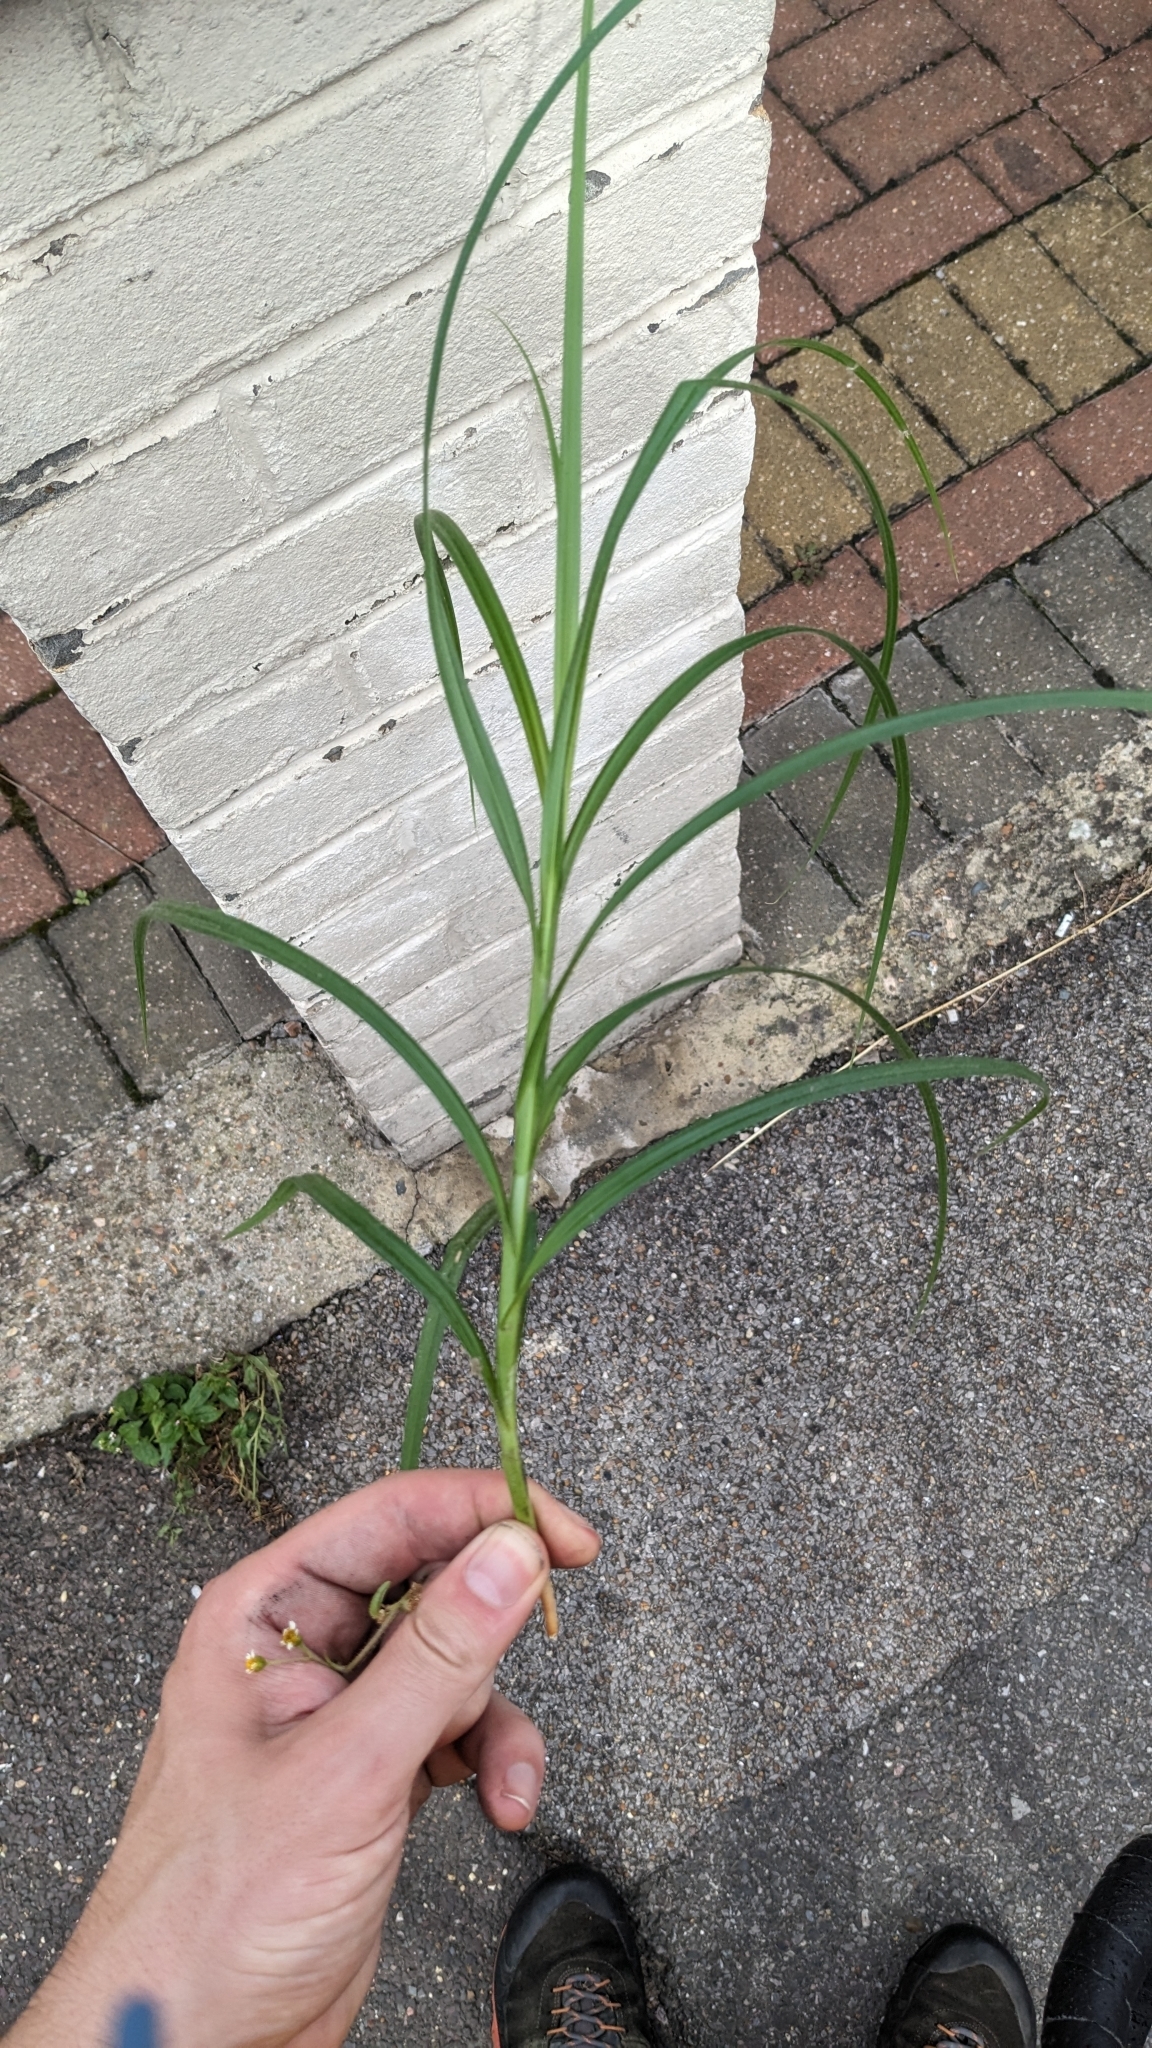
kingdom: Plantae
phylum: Tracheophyta
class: Liliopsida
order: Poales
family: Cyperaceae
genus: Carex
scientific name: Carex hirta
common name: Hairy sedge
